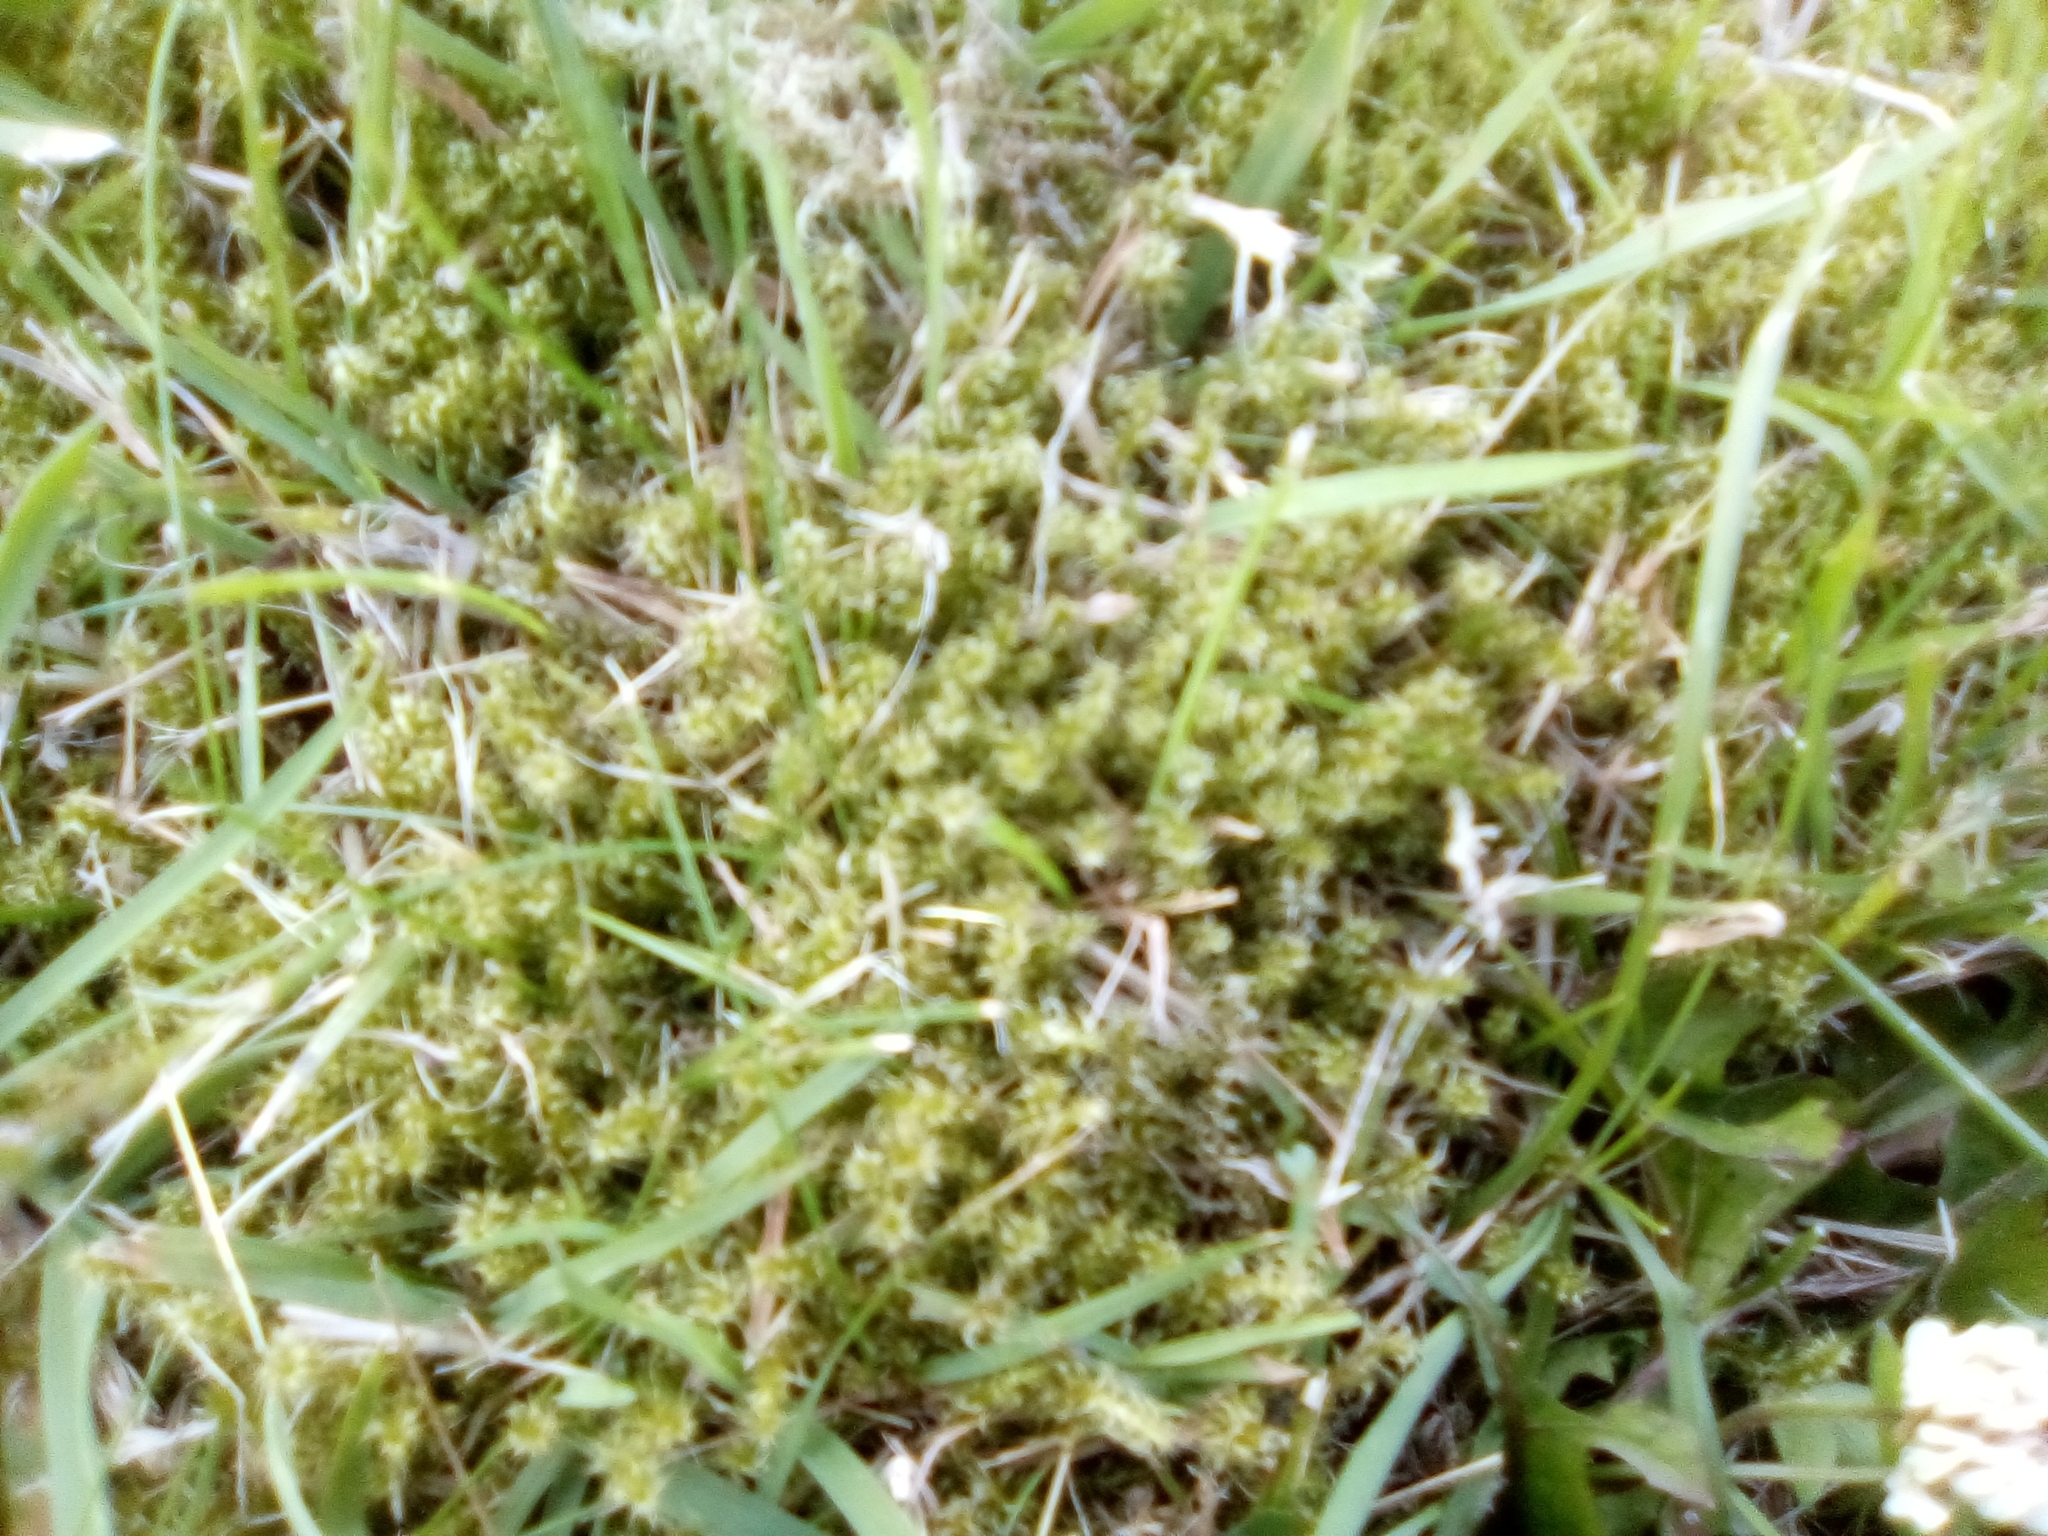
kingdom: Plantae
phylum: Bryophyta
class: Bryopsida
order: Hypnales
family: Hylocomiaceae
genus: Rhytidiadelphus
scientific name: Rhytidiadelphus squarrosus
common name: Springy turf-moss
